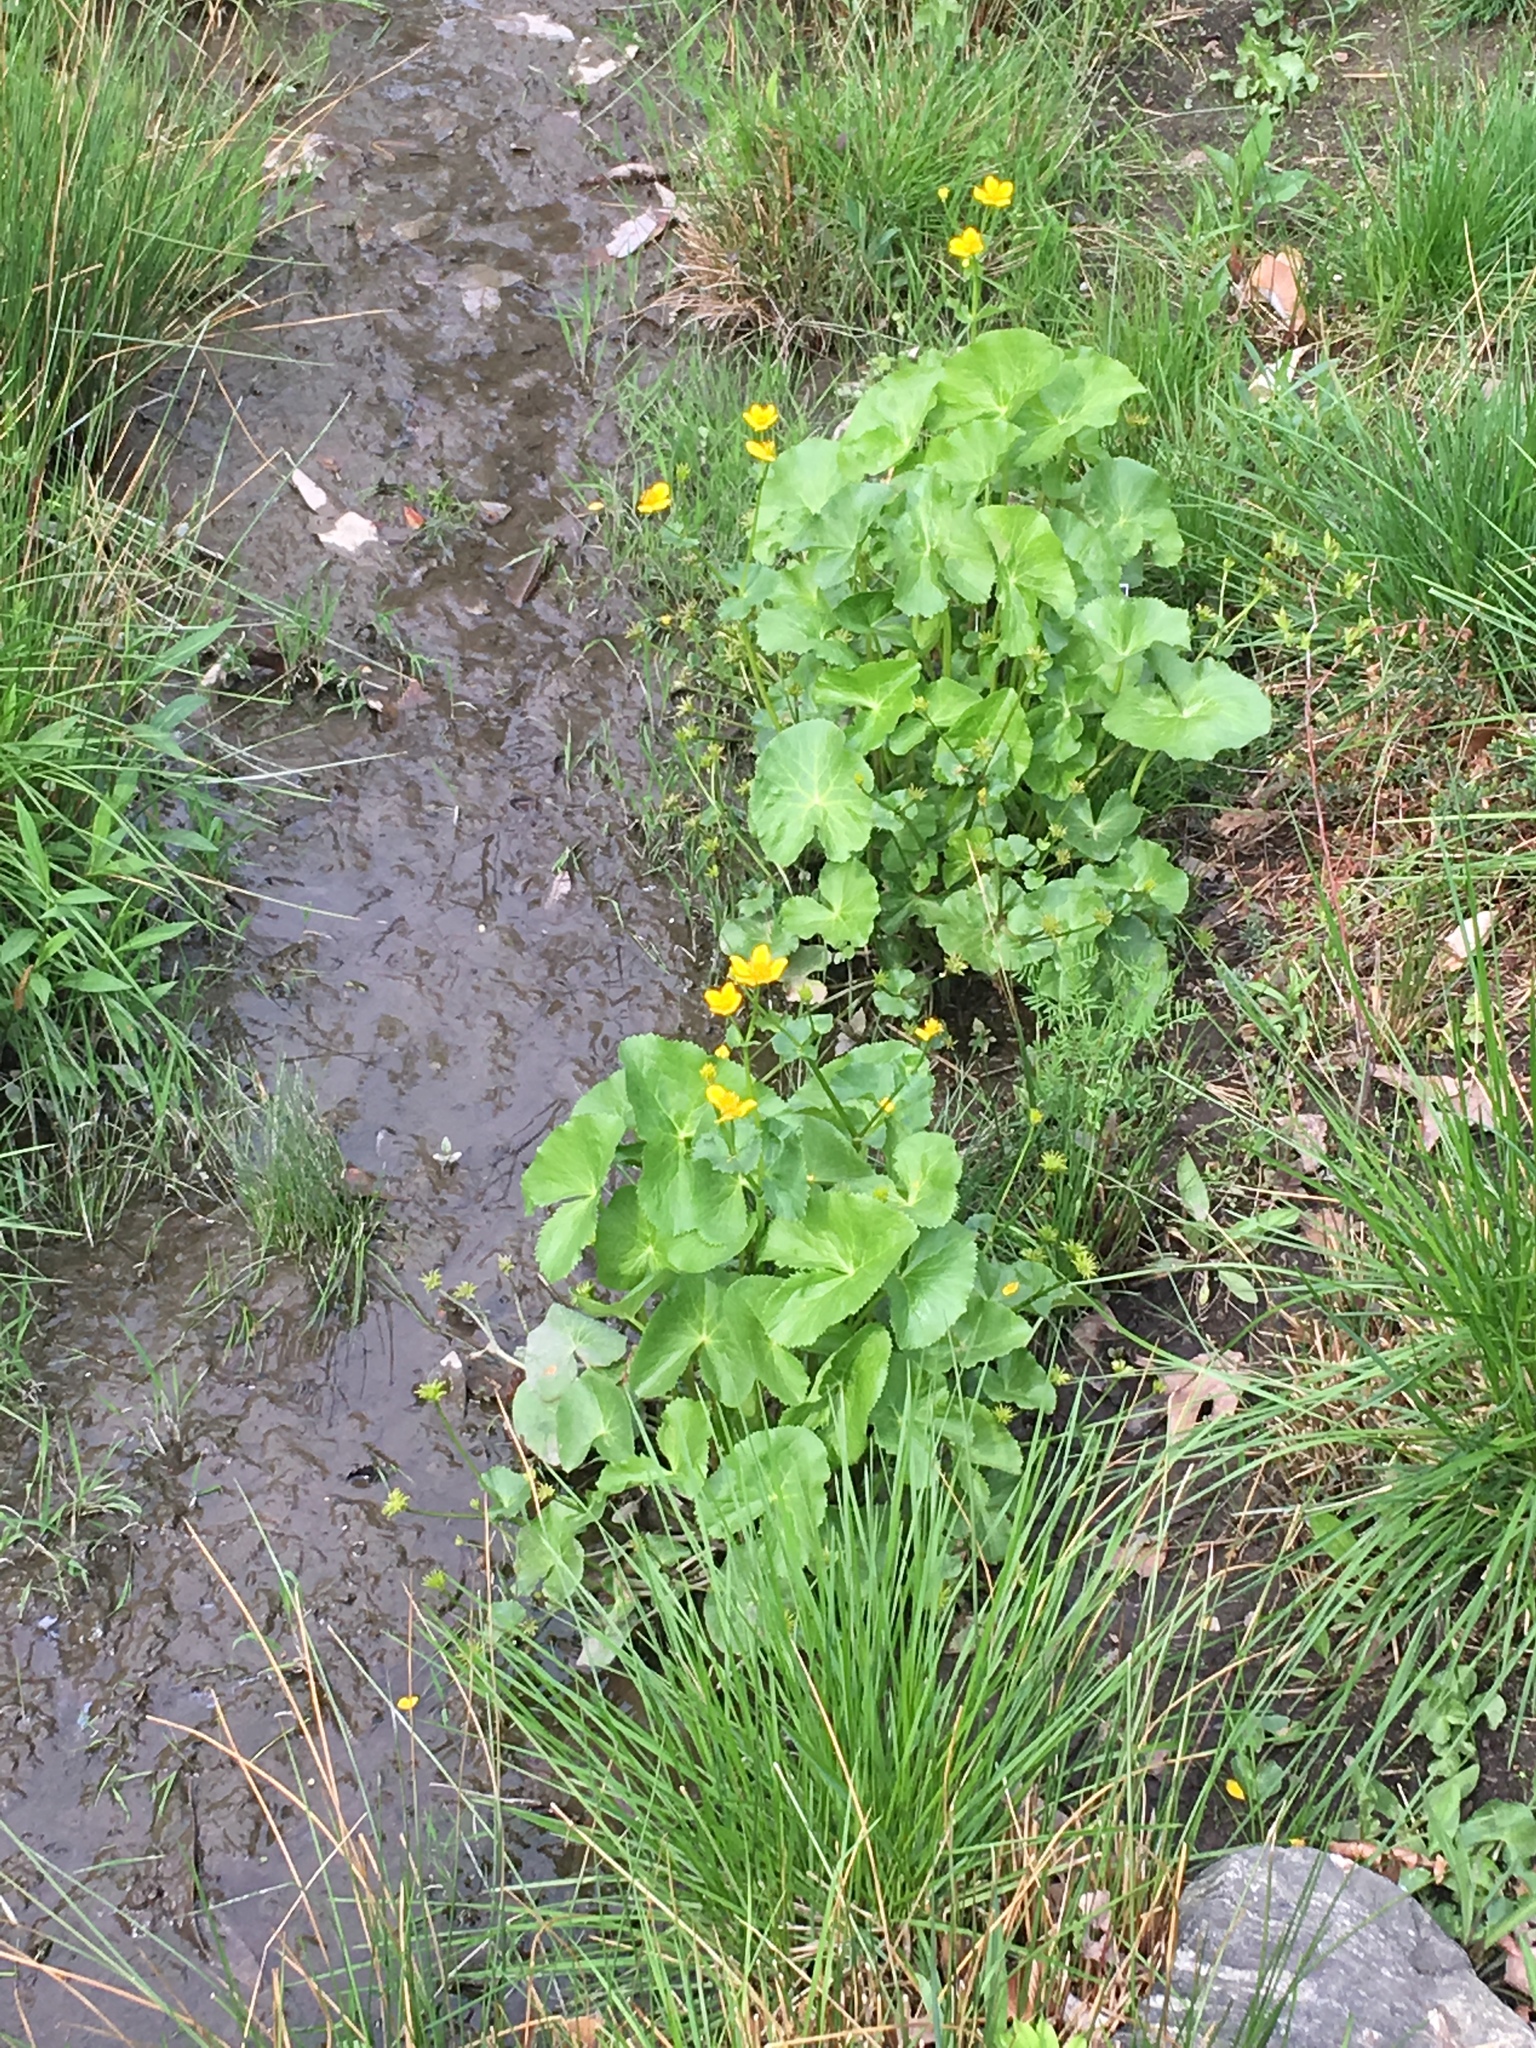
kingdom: Plantae
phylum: Tracheophyta
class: Magnoliopsida
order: Ranunculales
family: Ranunculaceae
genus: Caltha
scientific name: Caltha palustris
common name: Marsh marigold
